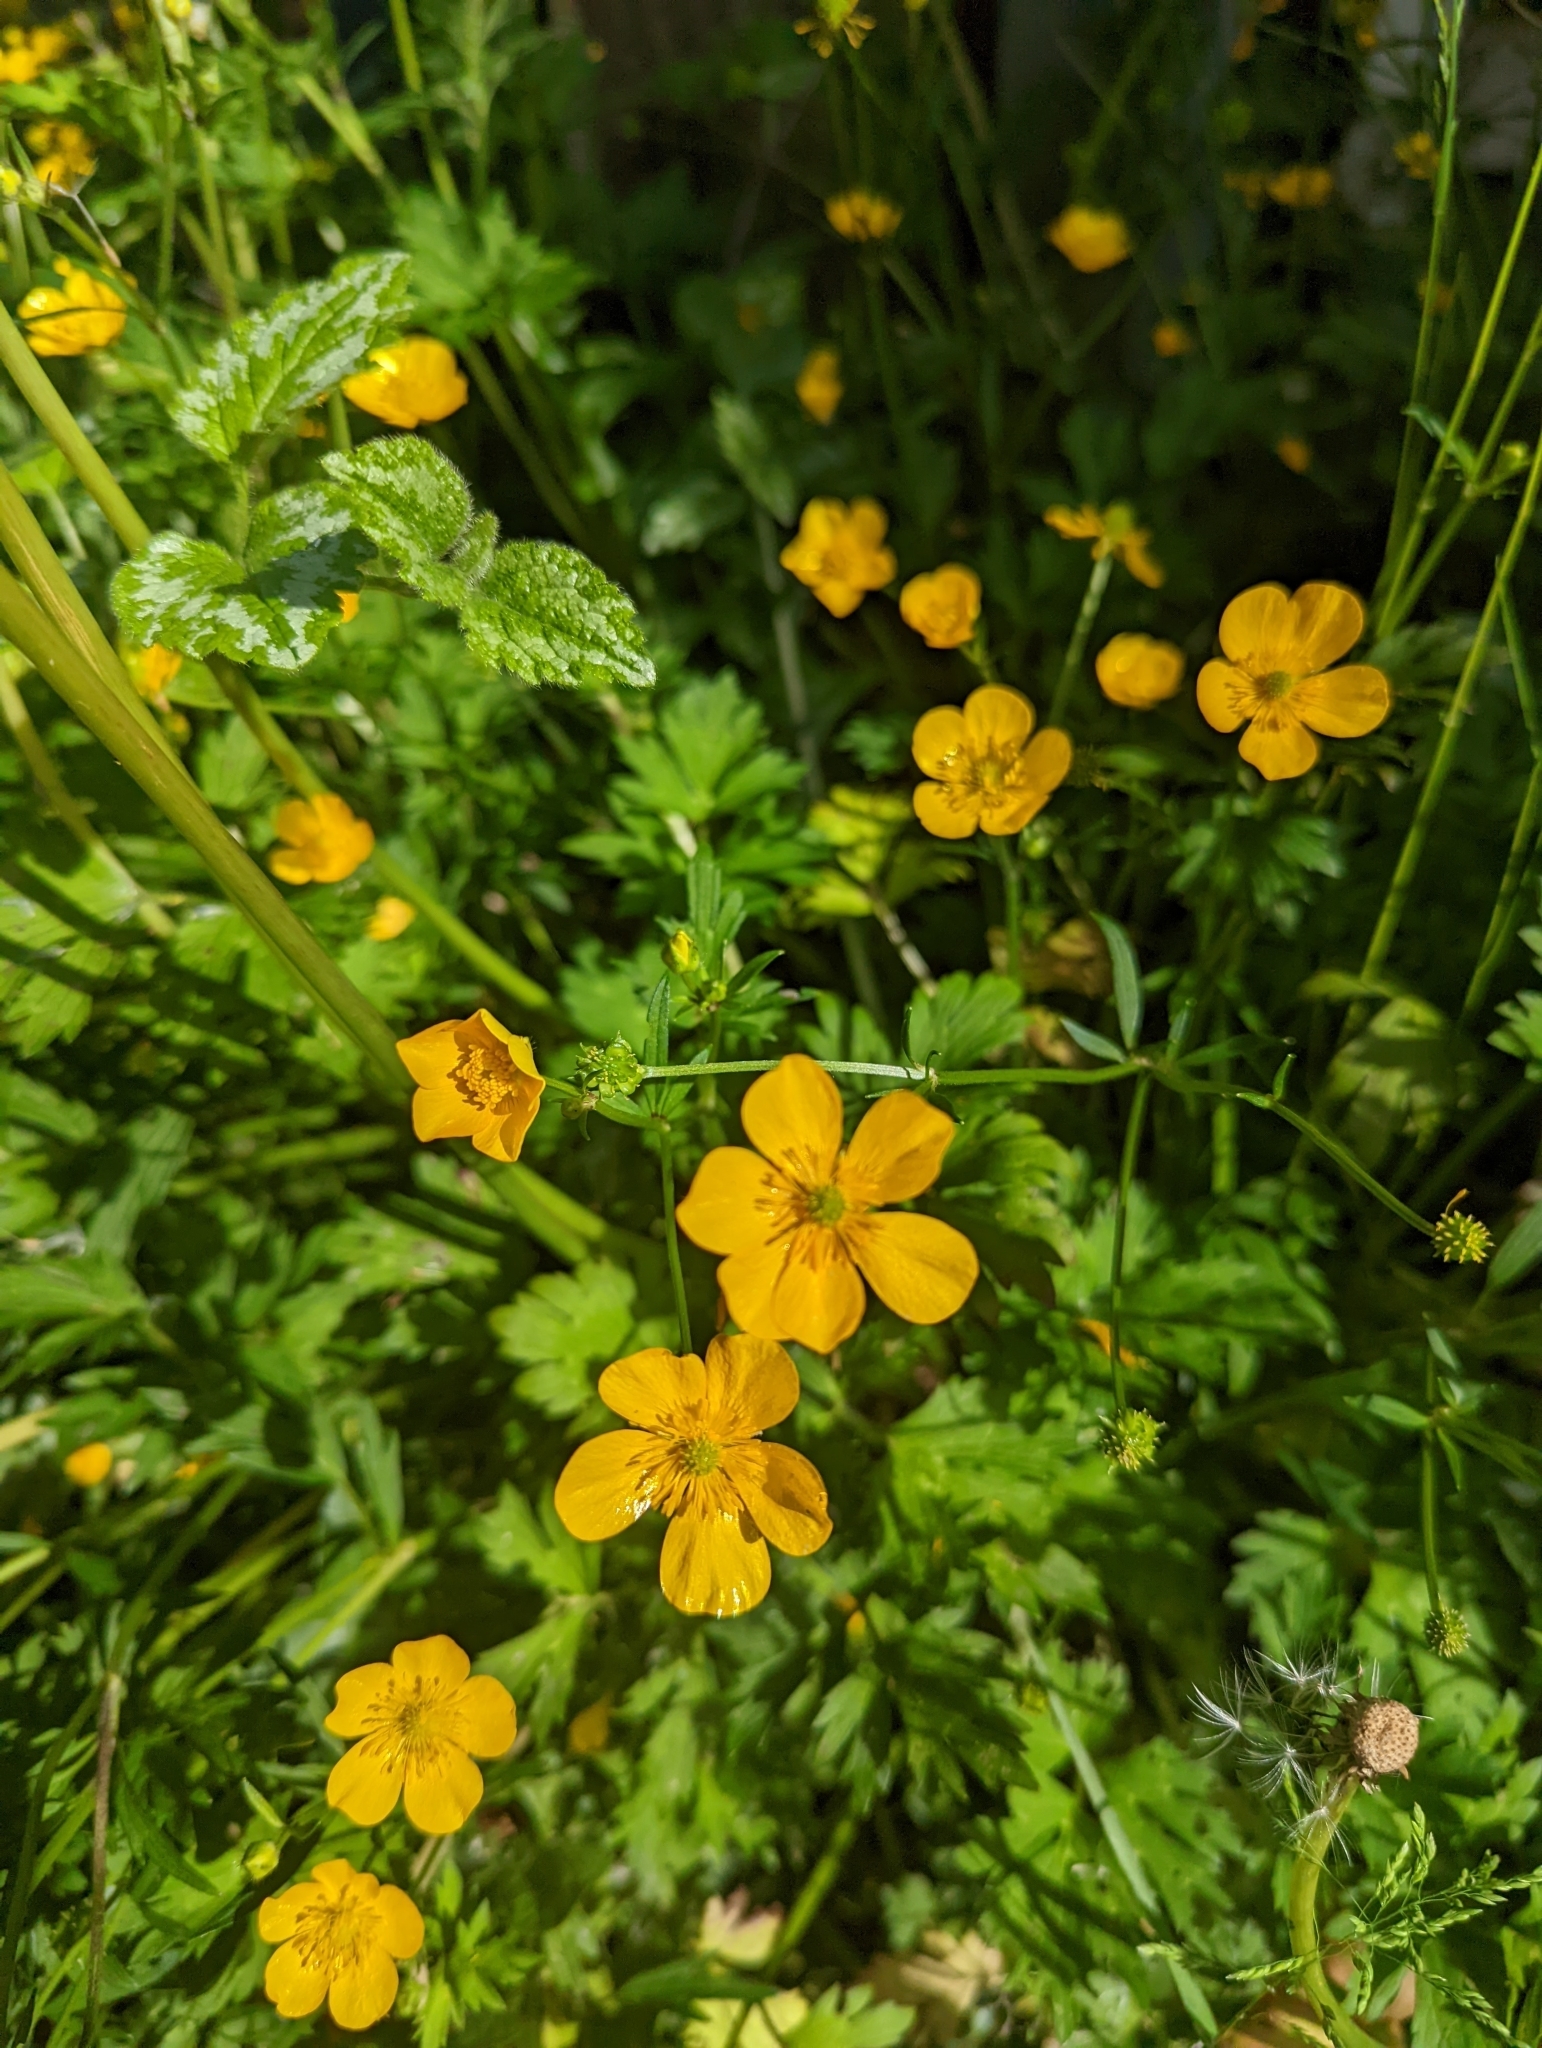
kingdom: Plantae
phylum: Tracheophyta
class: Magnoliopsida
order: Ranunculales
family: Ranunculaceae
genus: Ranunculus
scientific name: Ranunculus repens
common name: Creeping buttercup
